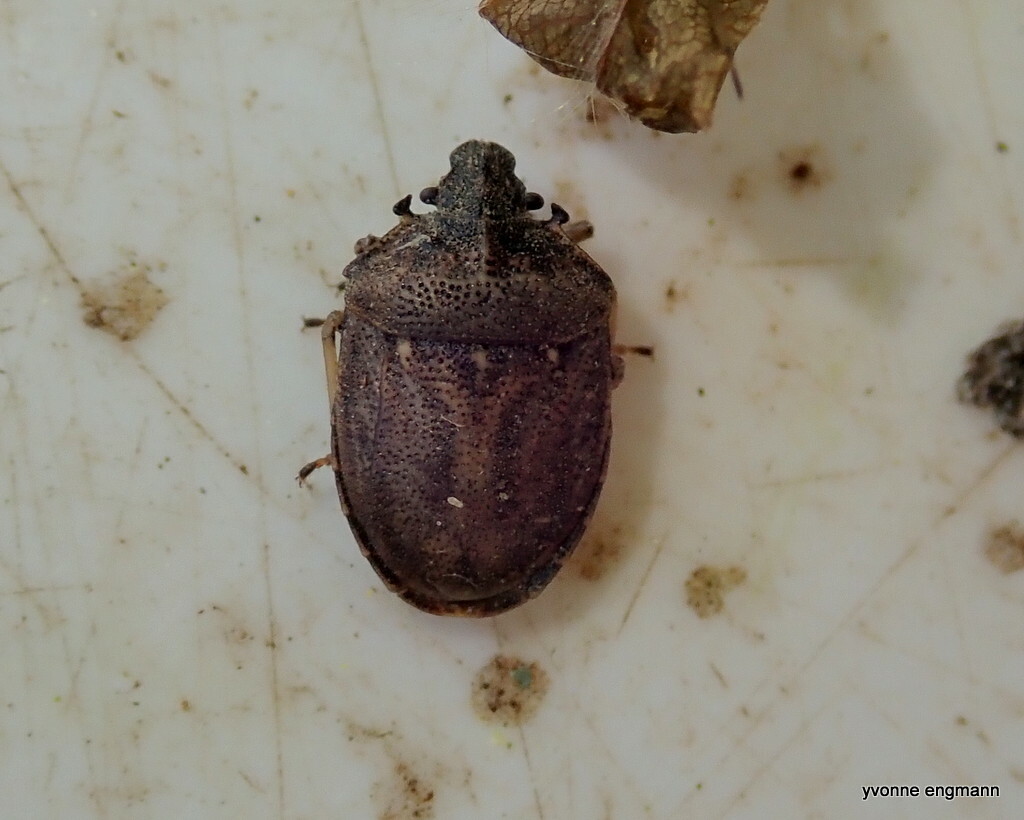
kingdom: Animalia
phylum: Arthropoda
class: Insecta
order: Hemiptera
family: Pentatomidae
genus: Podops
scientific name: Podops inunctus
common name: Turtle bug
